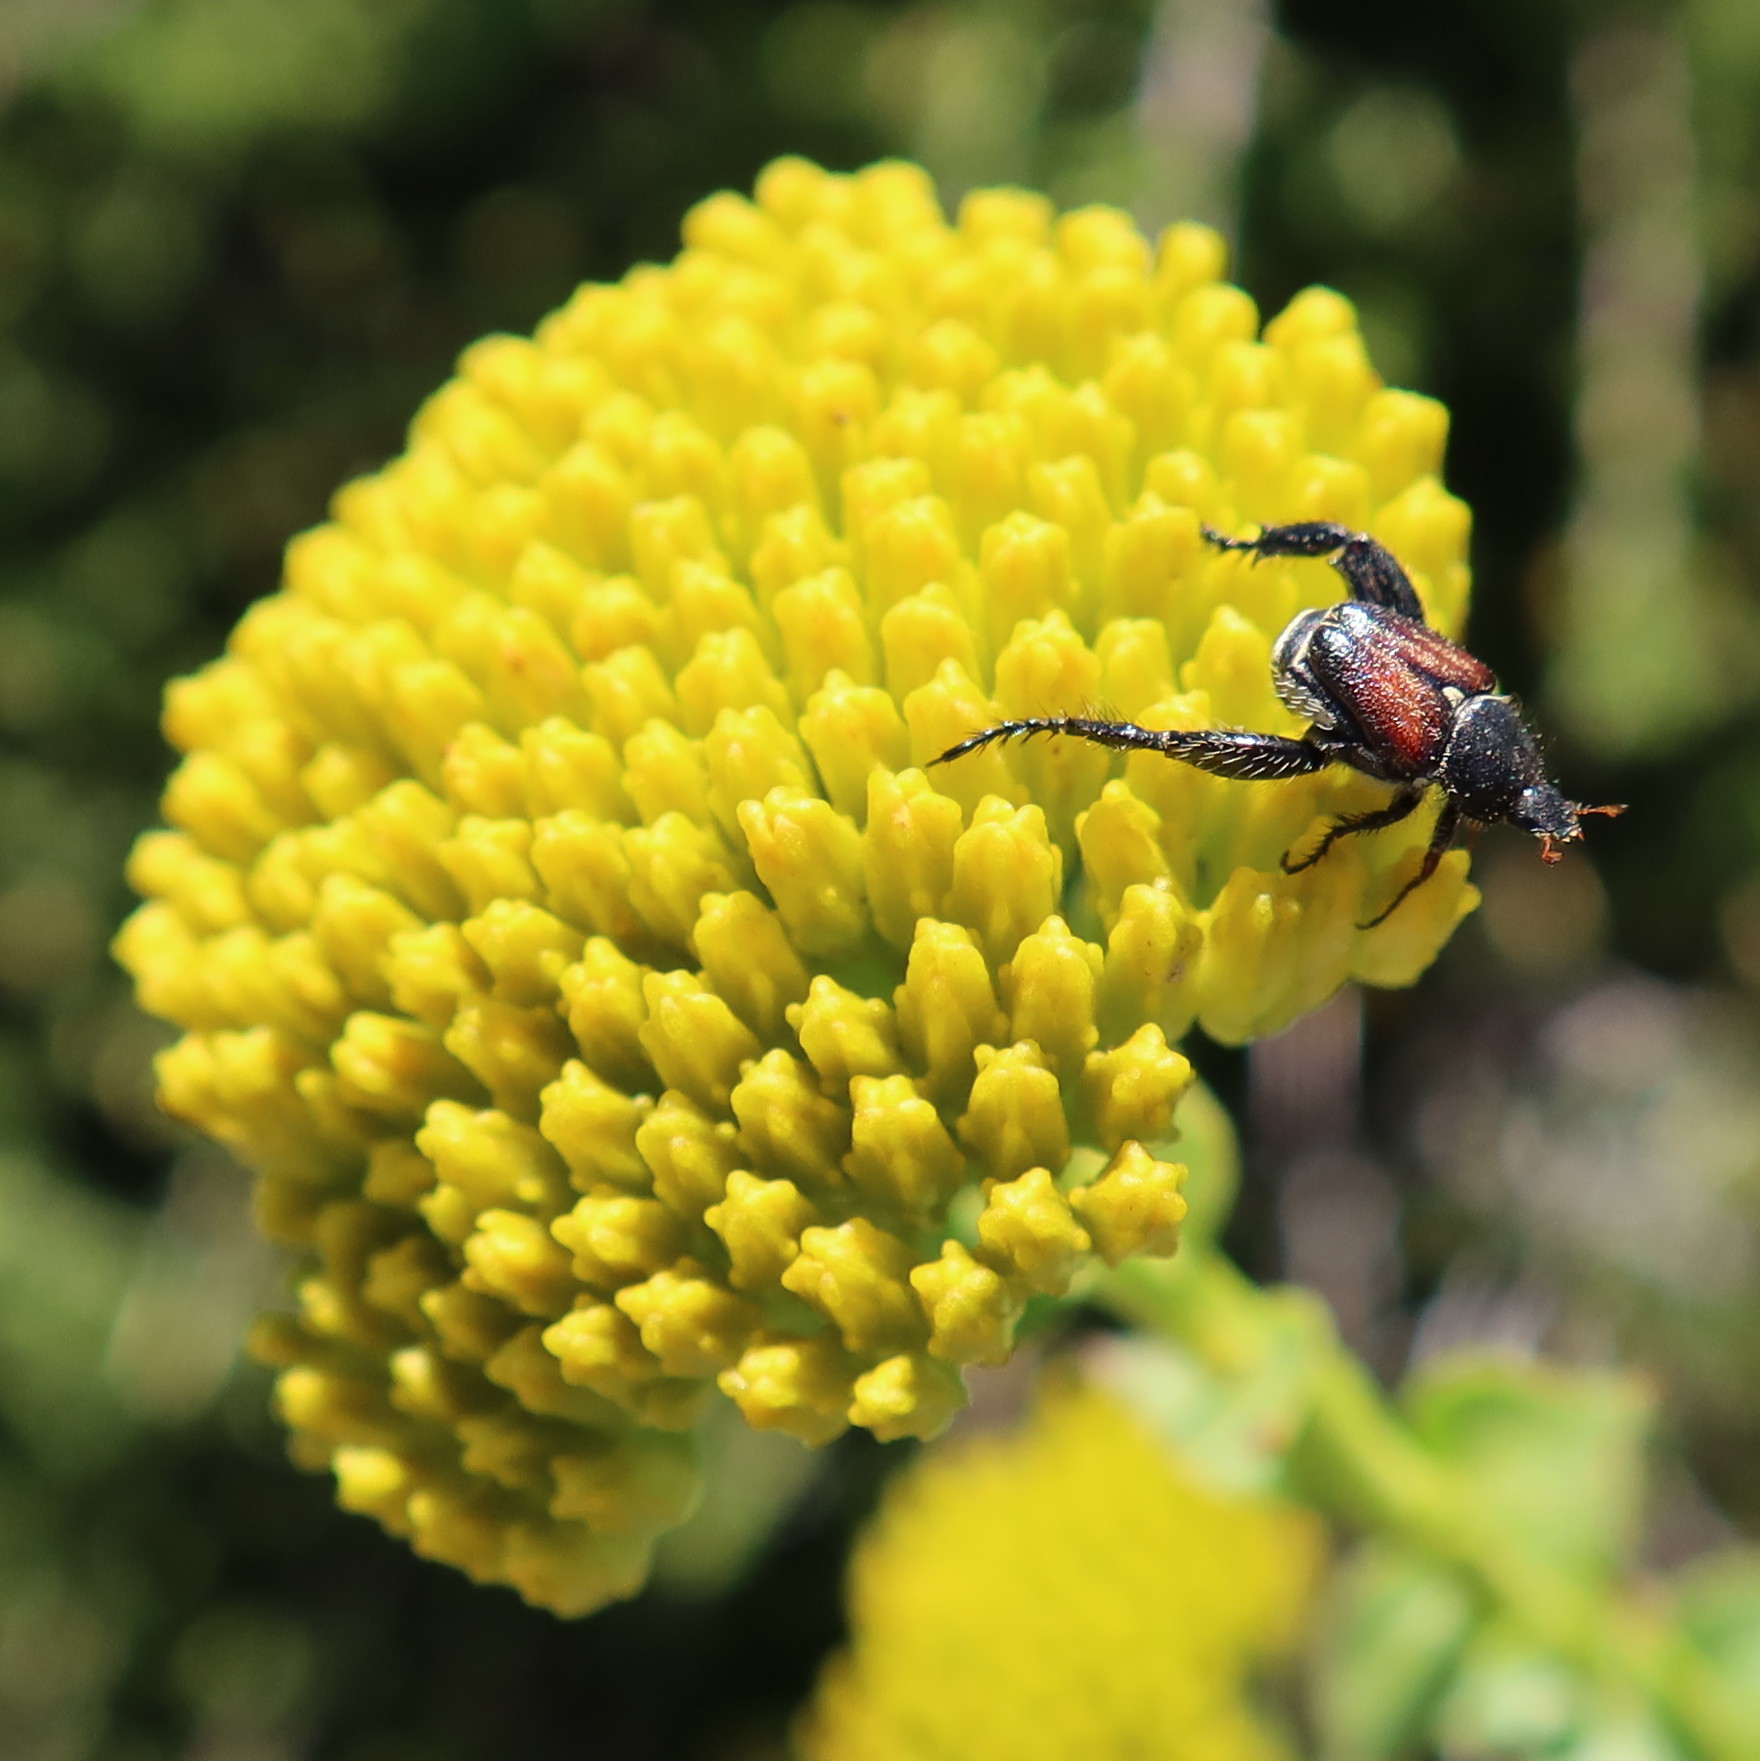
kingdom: Plantae
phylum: Tracheophyta
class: Magnoliopsida
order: Asterales
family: Asteraceae
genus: Athanasia
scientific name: Athanasia dentata
